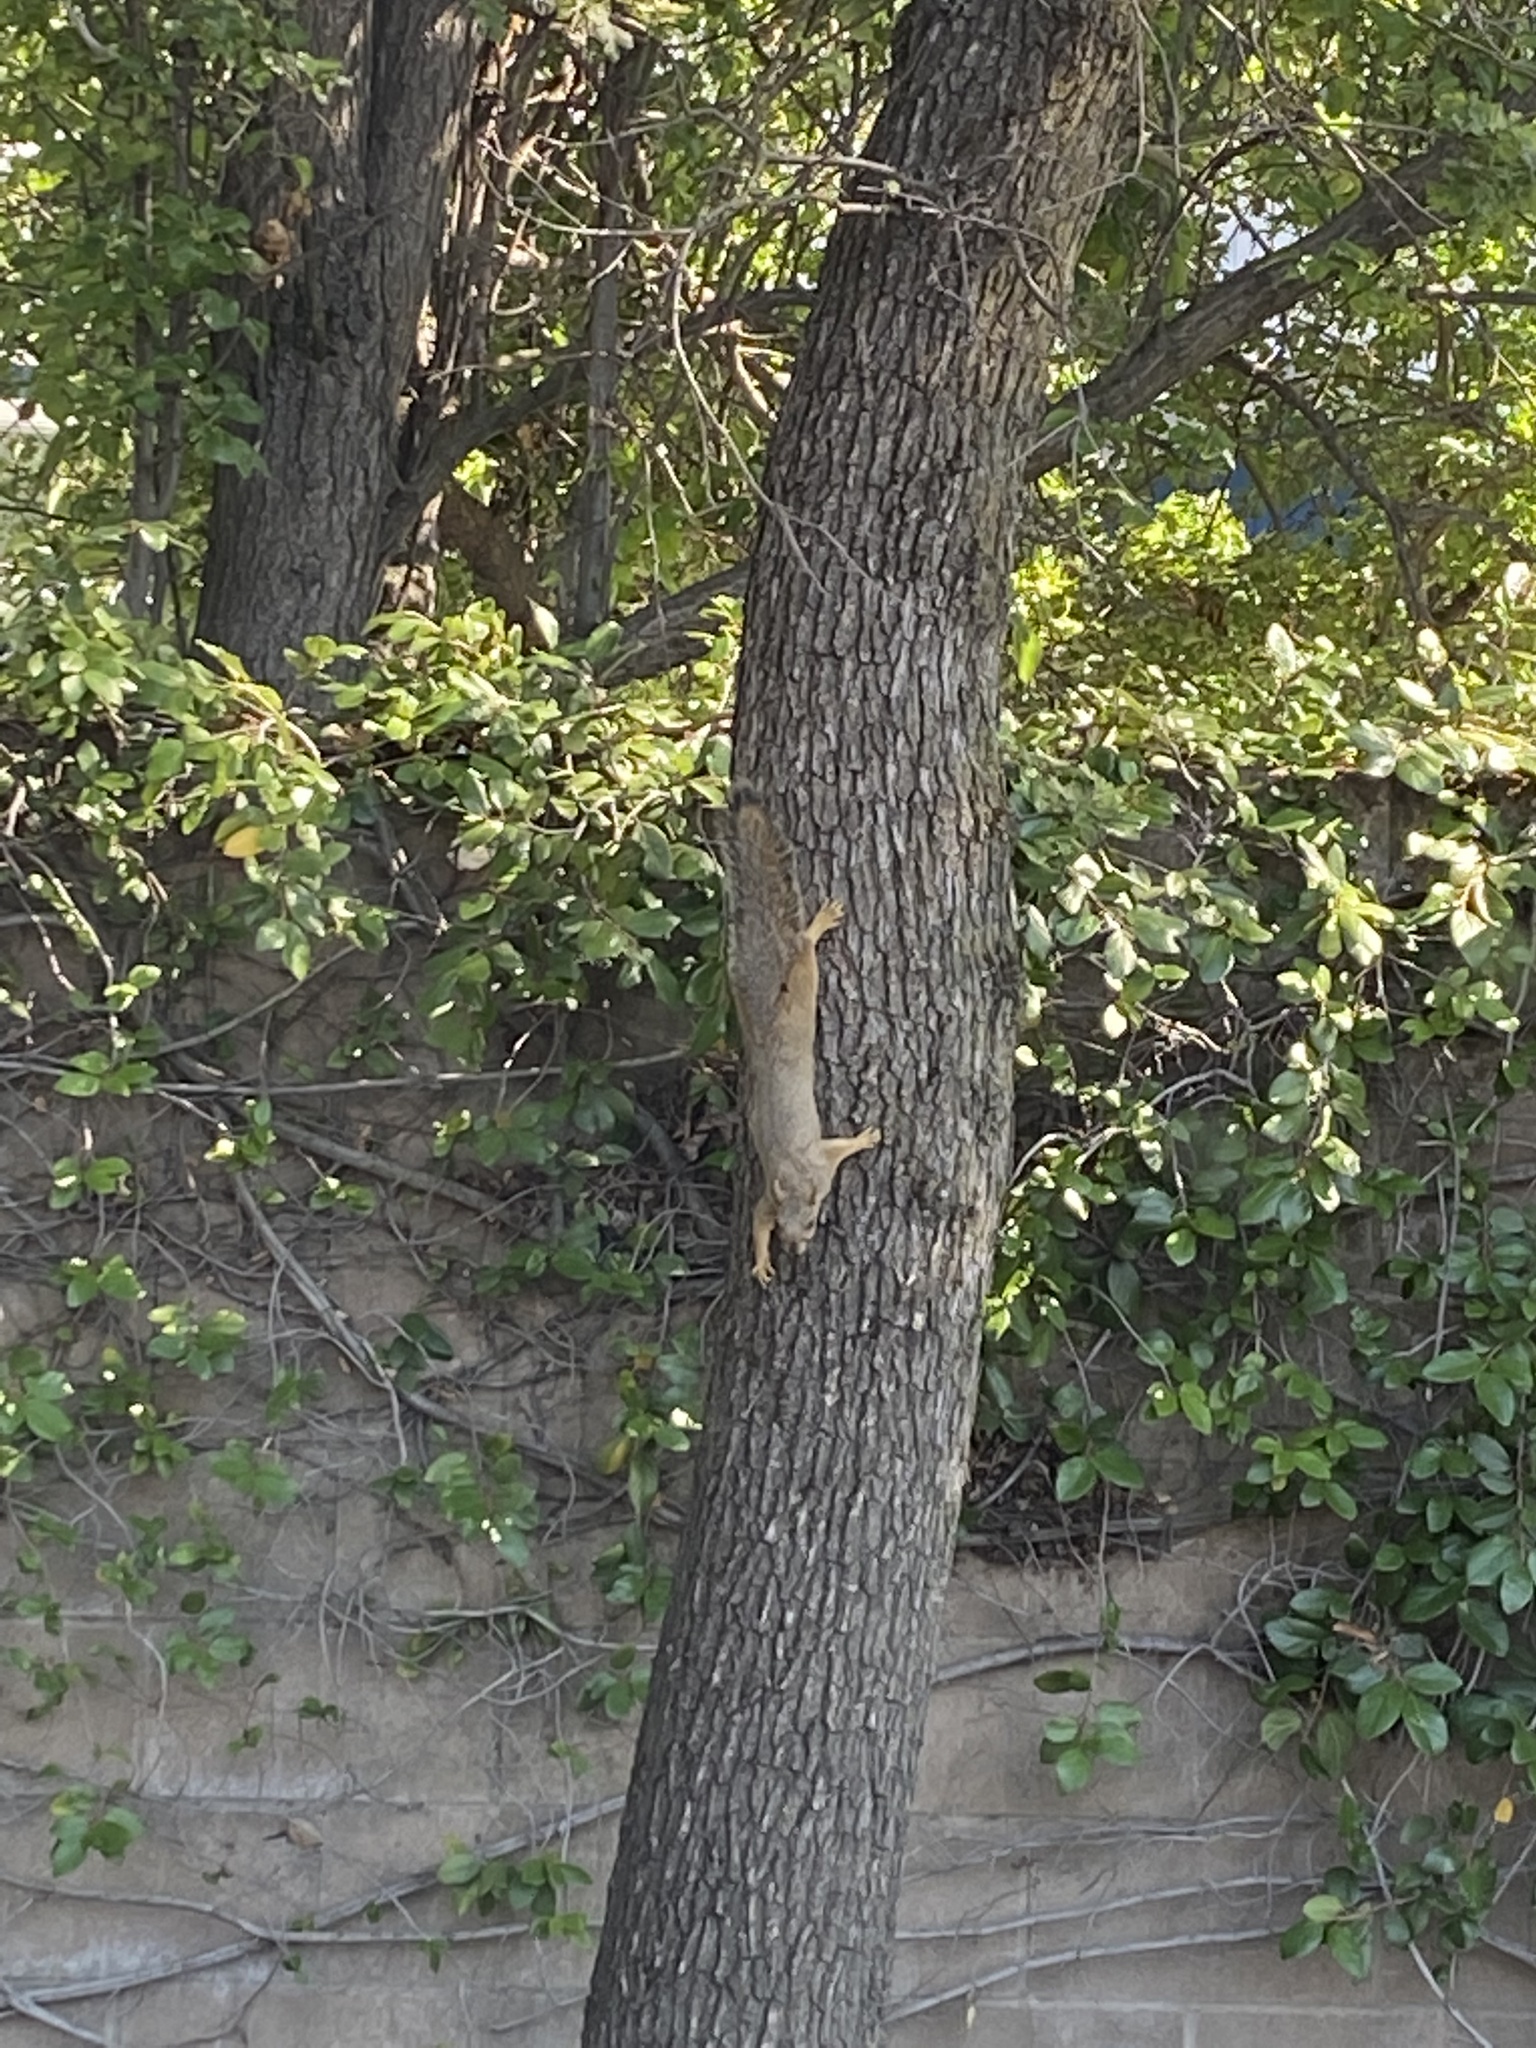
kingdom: Animalia
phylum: Chordata
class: Mammalia
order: Rodentia
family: Sciuridae
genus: Sciurus
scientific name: Sciurus niger
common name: Fox squirrel
